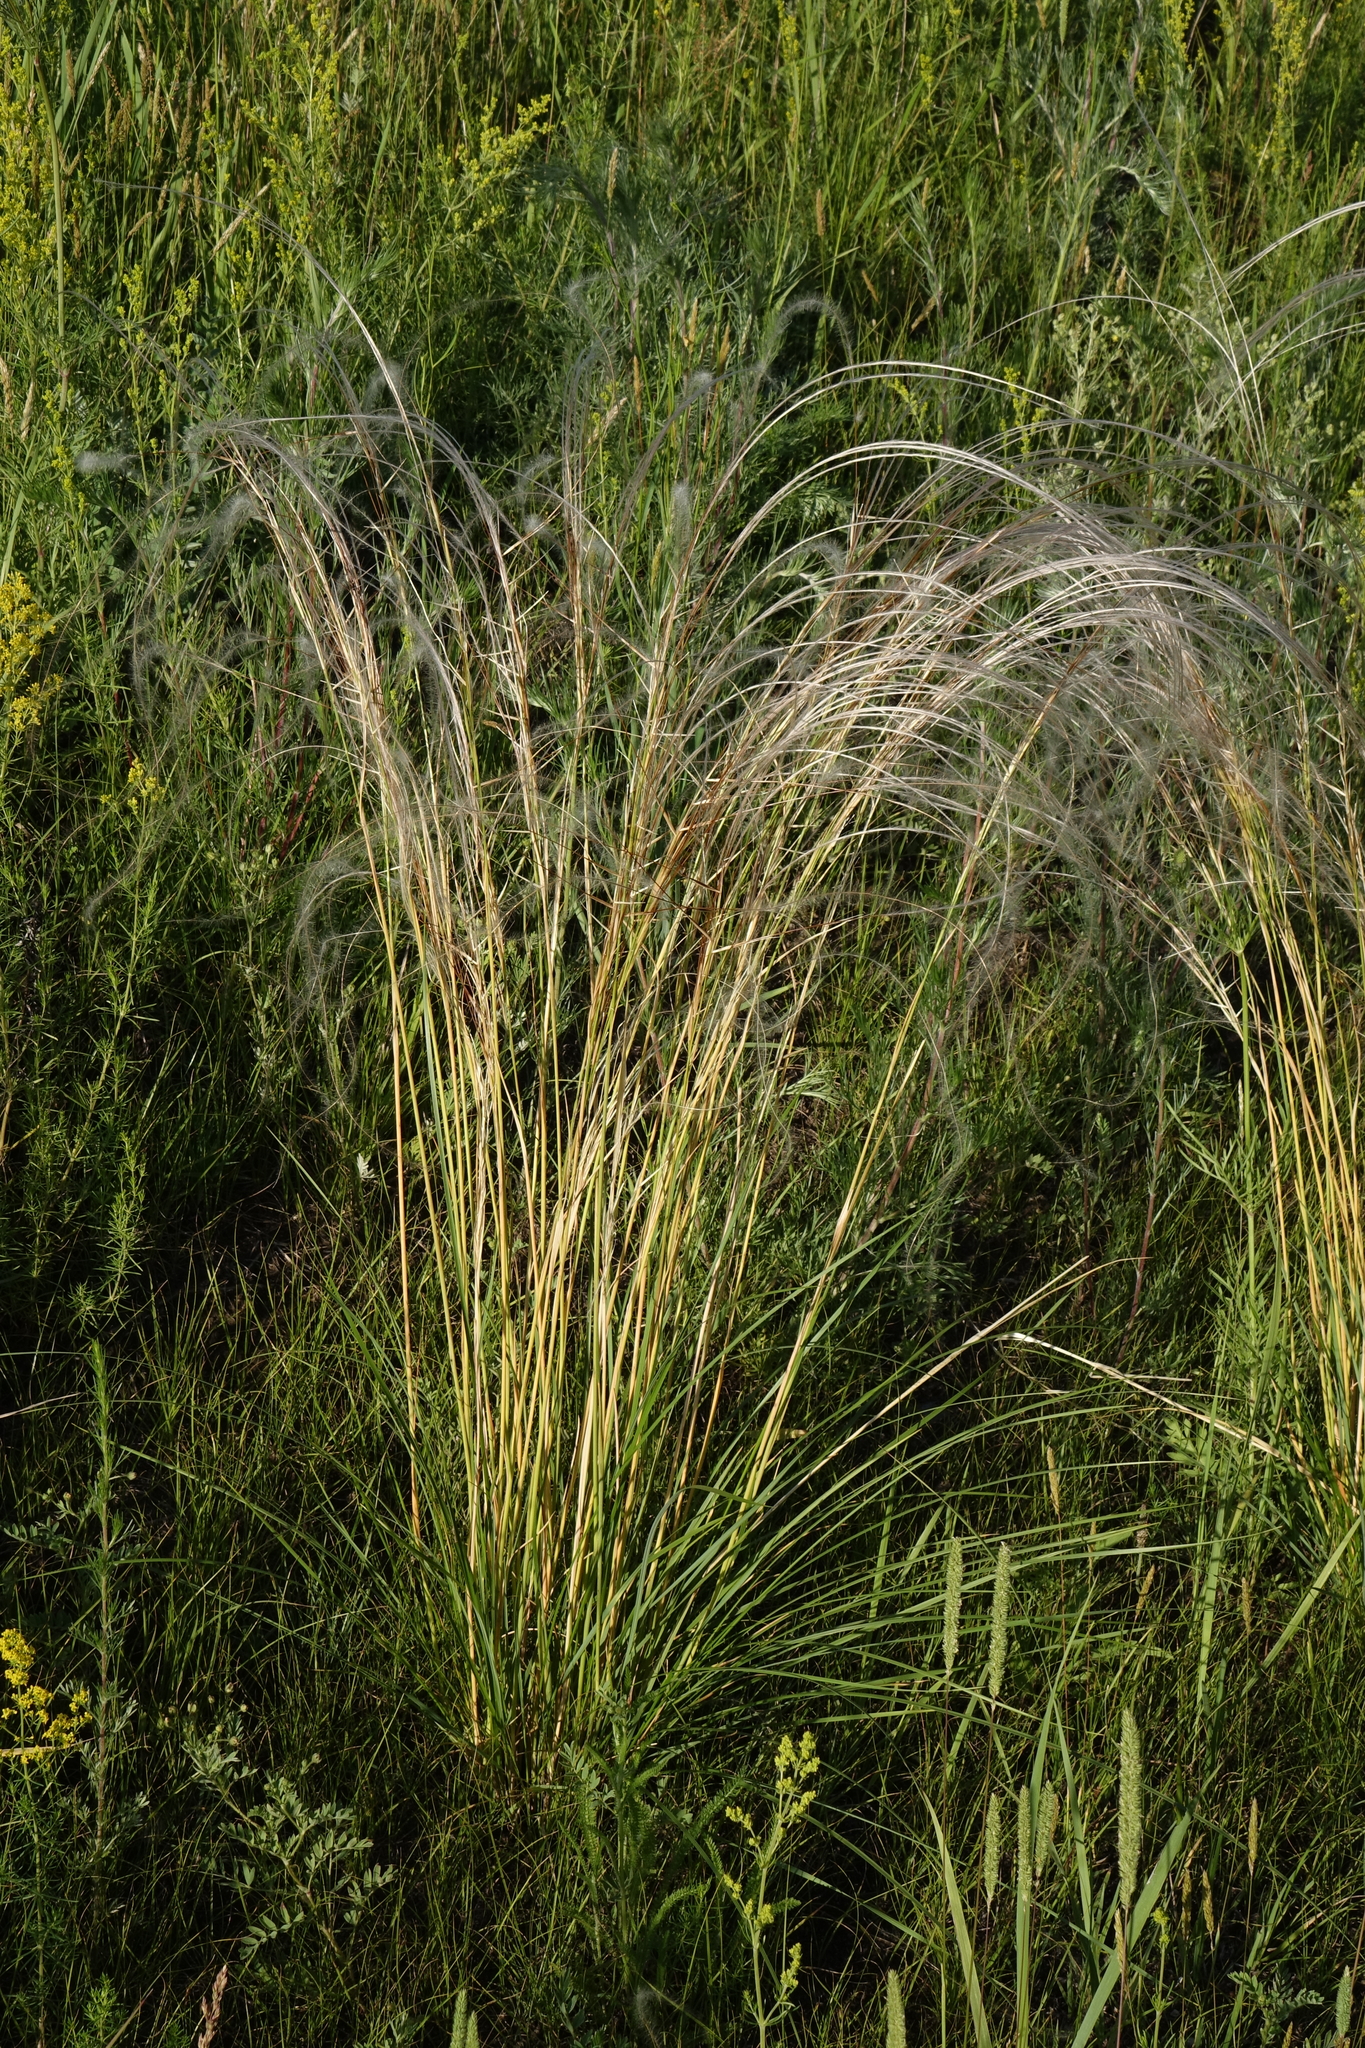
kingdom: Plantae
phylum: Tracheophyta
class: Liliopsida
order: Poales
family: Poaceae
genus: Stipa
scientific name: Stipa pennata
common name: European feather grass
